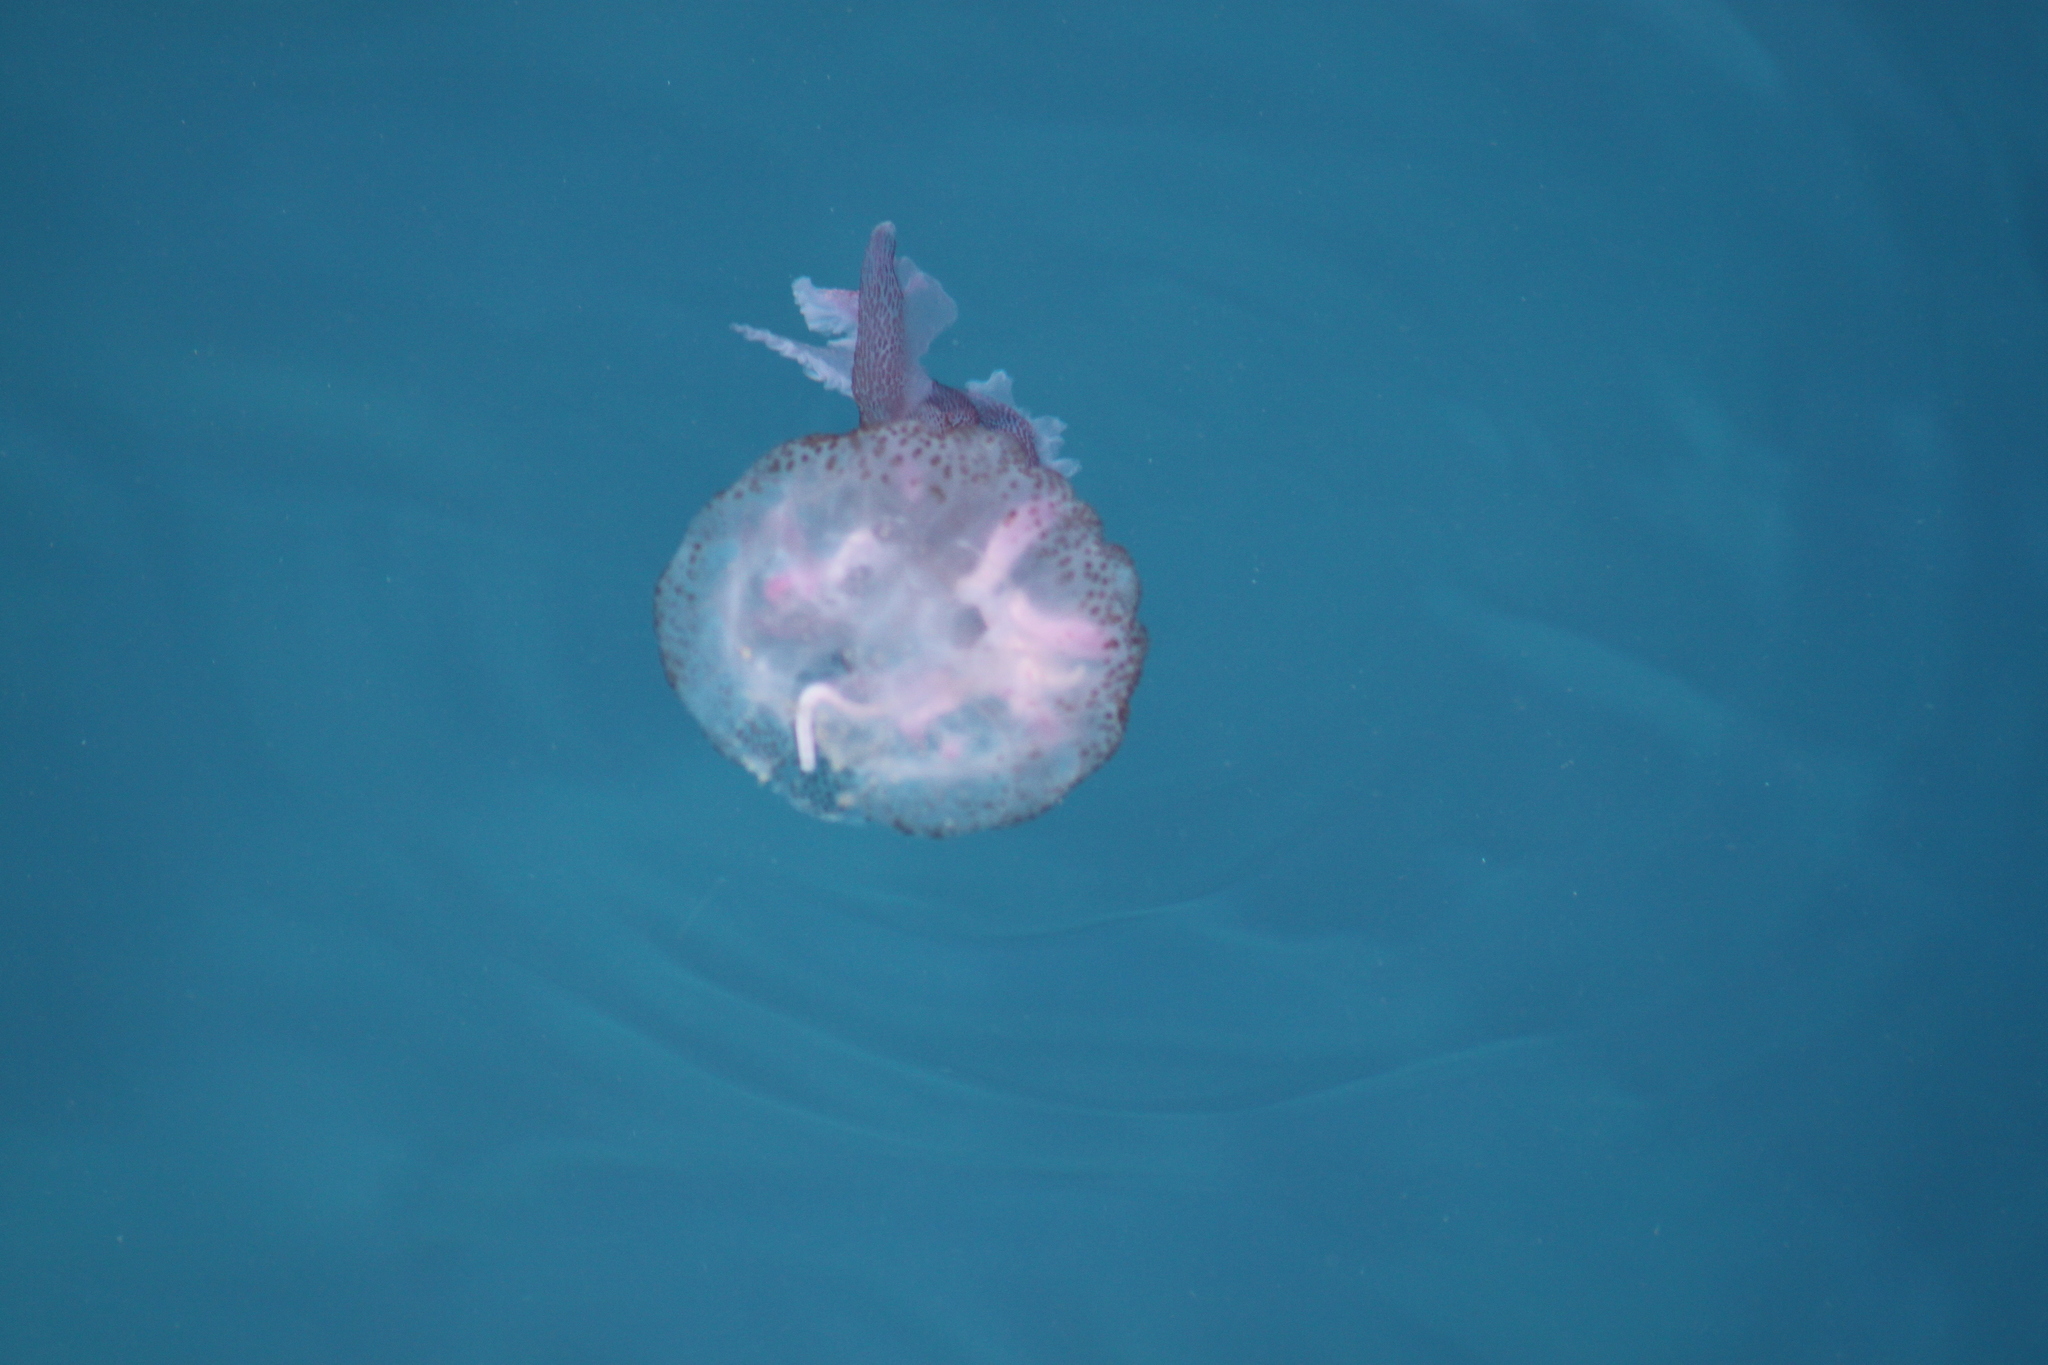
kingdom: Animalia
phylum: Cnidaria
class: Scyphozoa
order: Semaeostomeae
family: Pelagiidae
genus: Pelagia
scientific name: Pelagia noctiluca
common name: Mauve stinger
